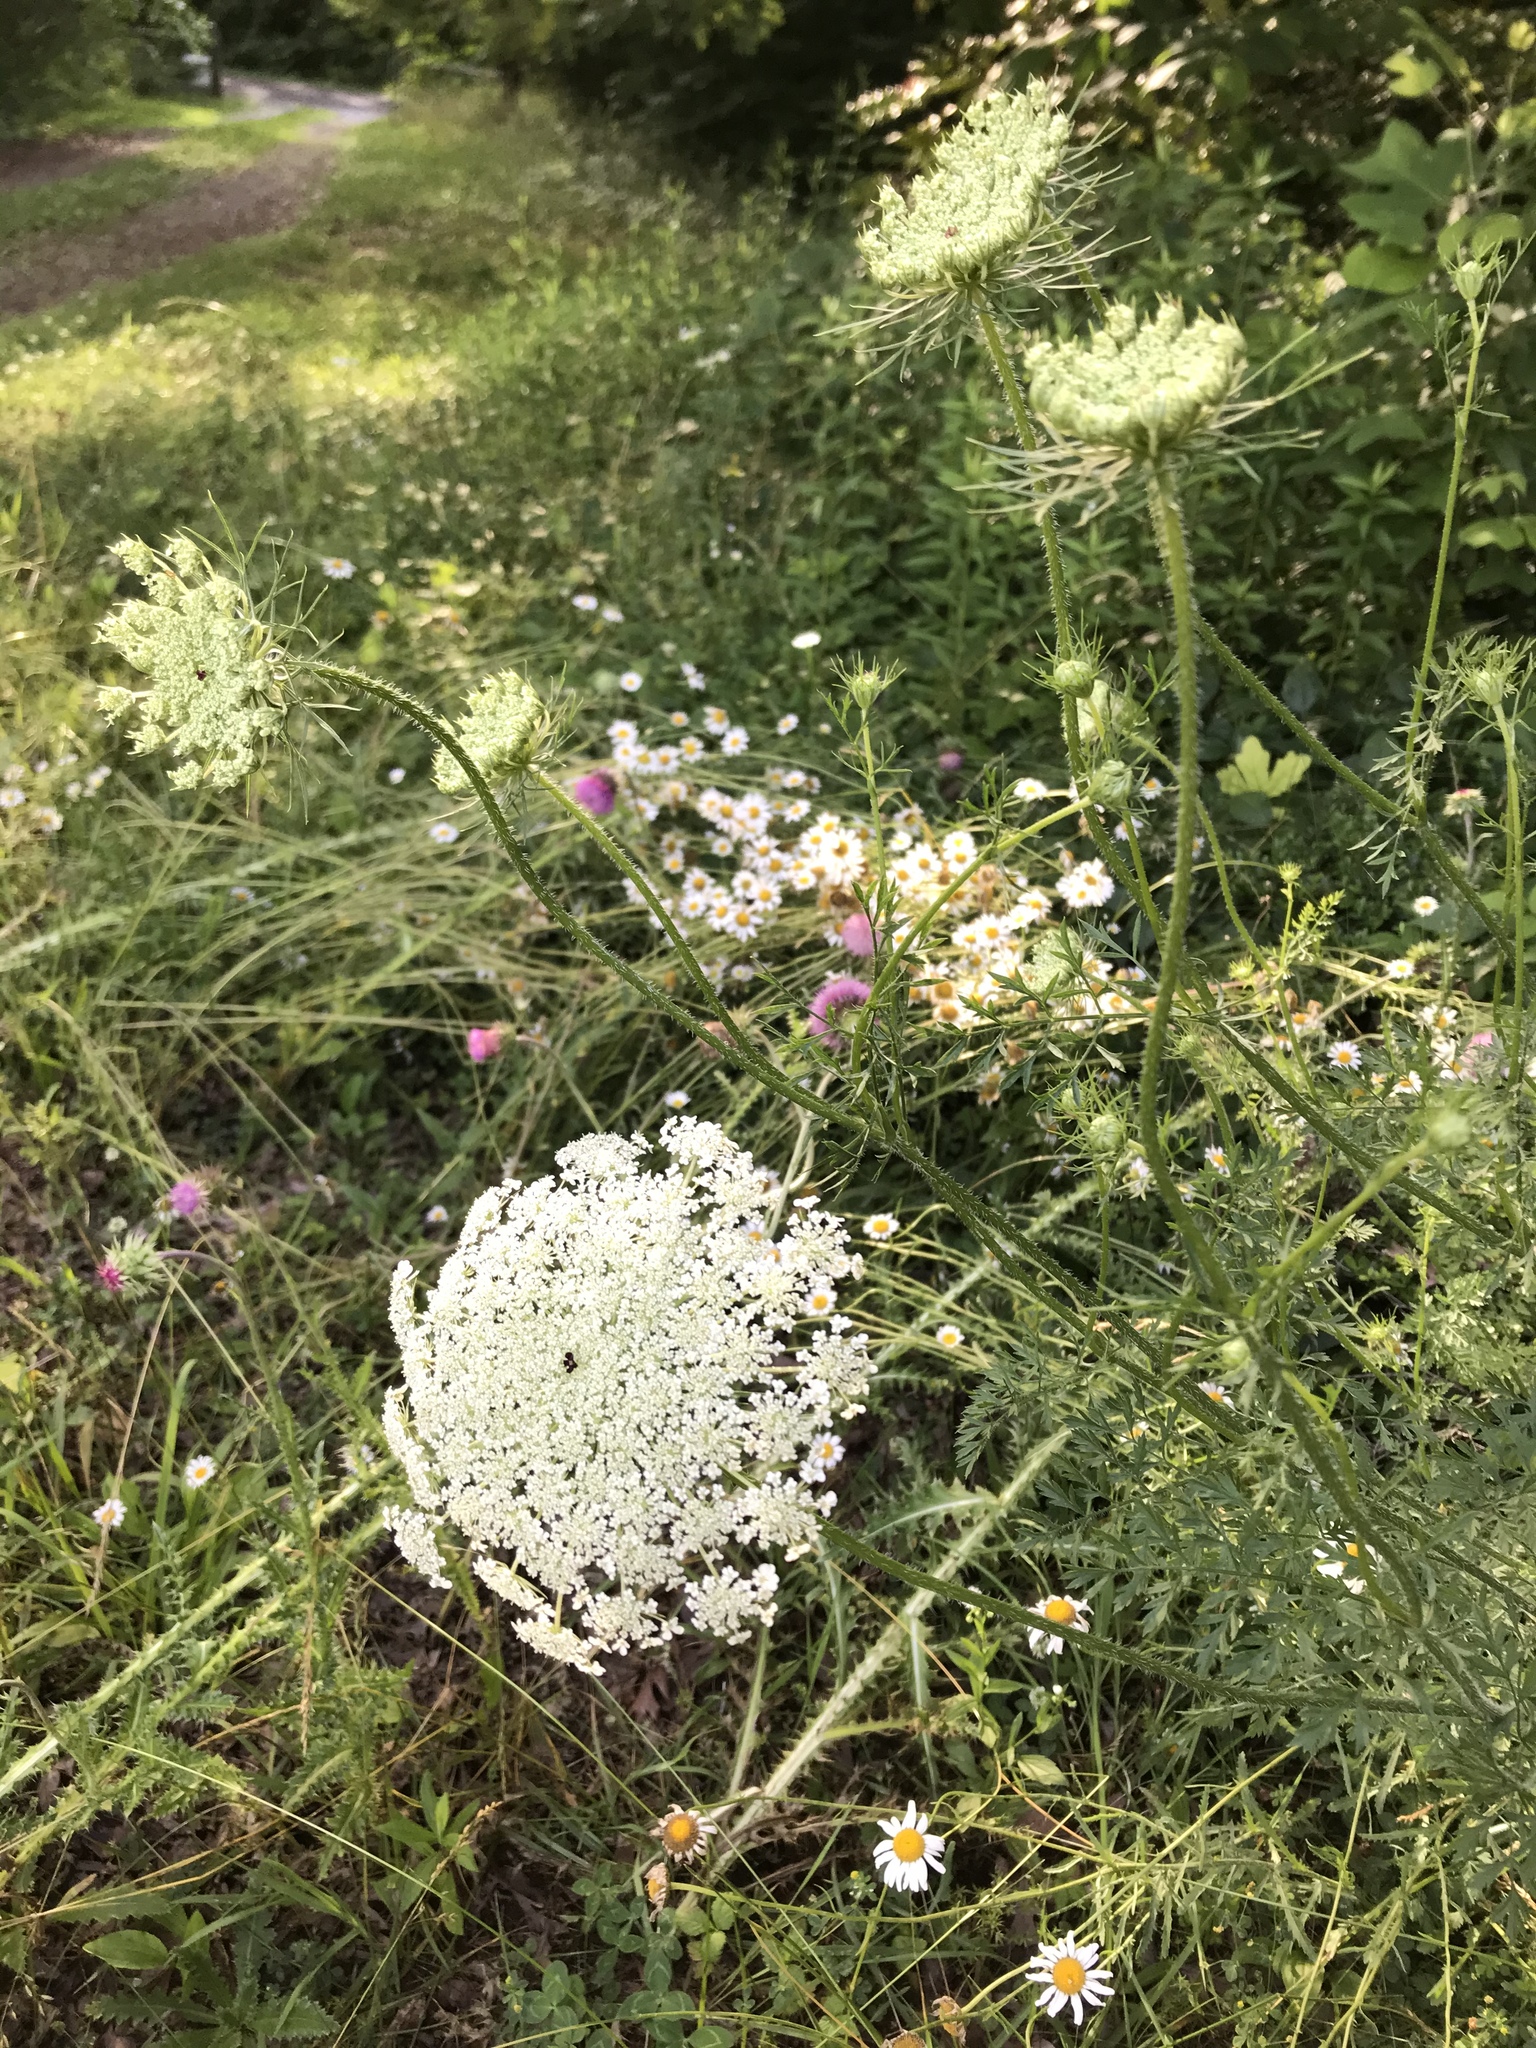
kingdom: Plantae
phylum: Tracheophyta
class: Magnoliopsida
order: Apiales
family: Apiaceae
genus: Daucus
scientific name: Daucus carota
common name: Wild carrot
